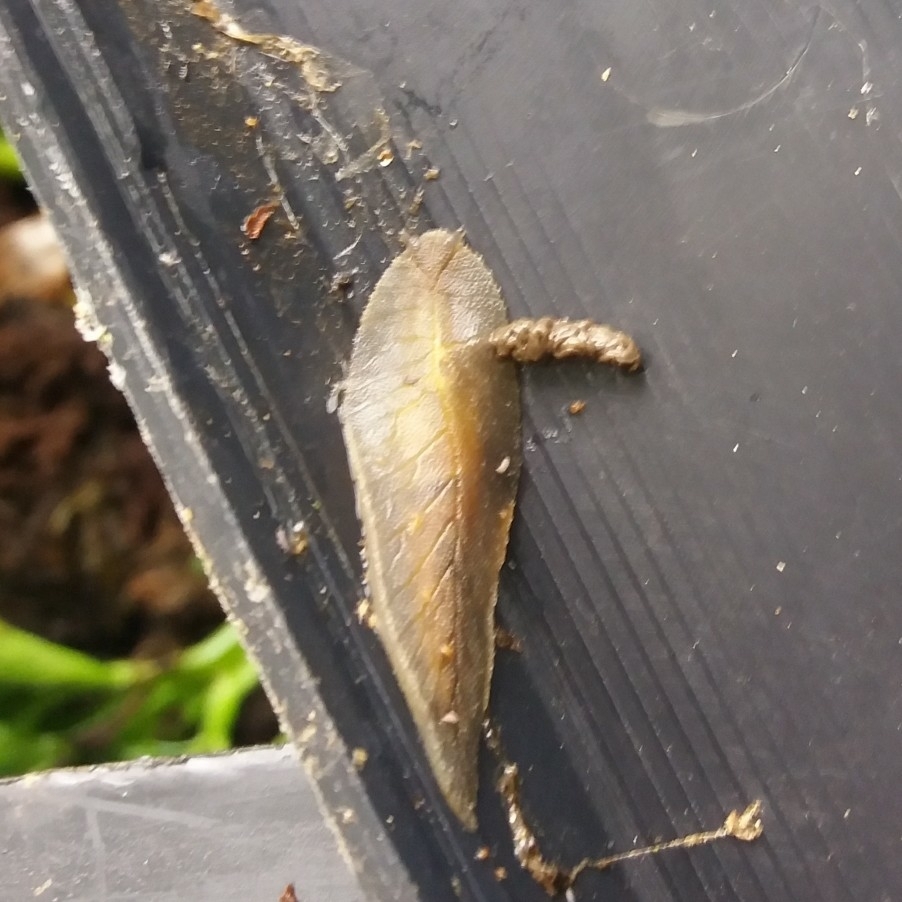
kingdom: Animalia
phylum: Mollusca
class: Gastropoda
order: Stylommatophora
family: Athoracophoridae
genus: Athoracophorus
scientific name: Athoracophorus bitentaculatus
